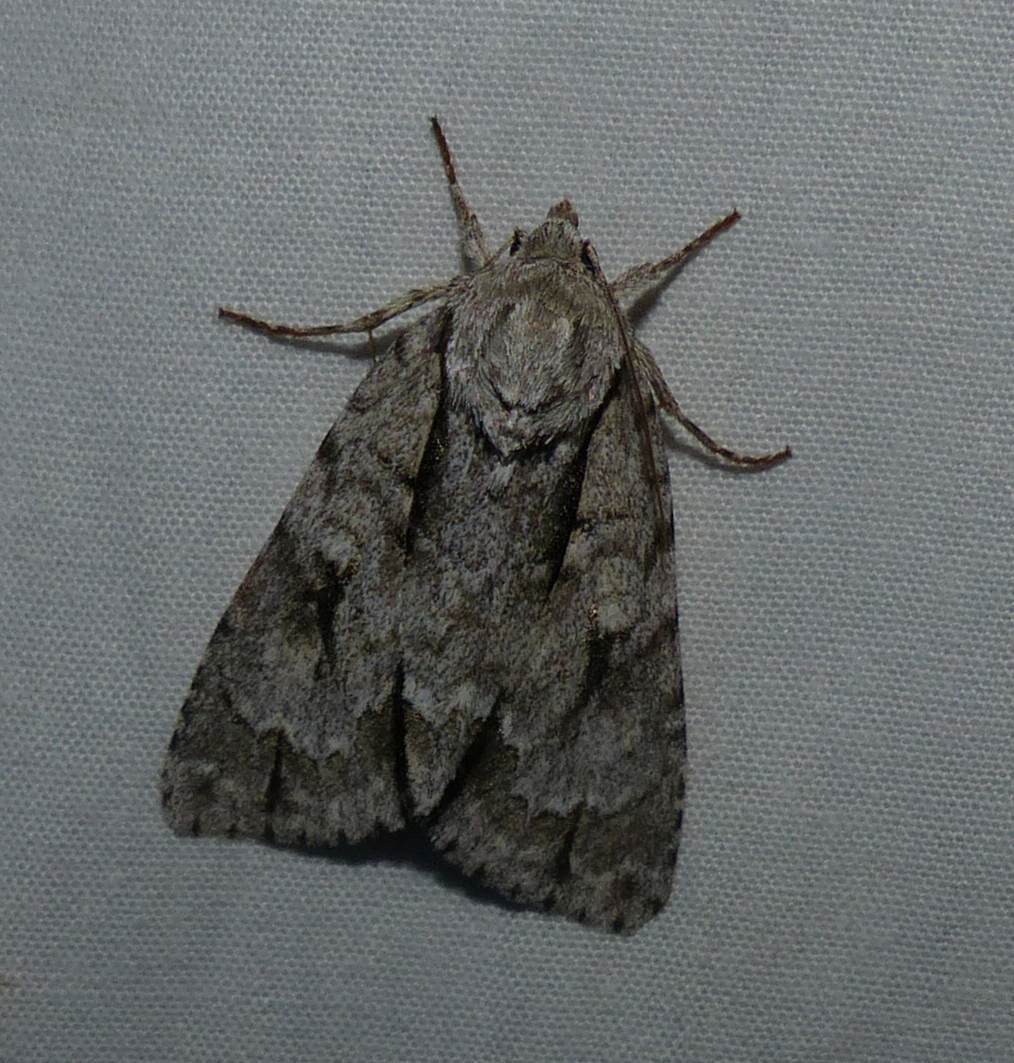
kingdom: Animalia
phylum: Arthropoda
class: Insecta
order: Lepidoptera
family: Noctuidae
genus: Acronicta
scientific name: Acronicta hasta
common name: Cherry dagger
